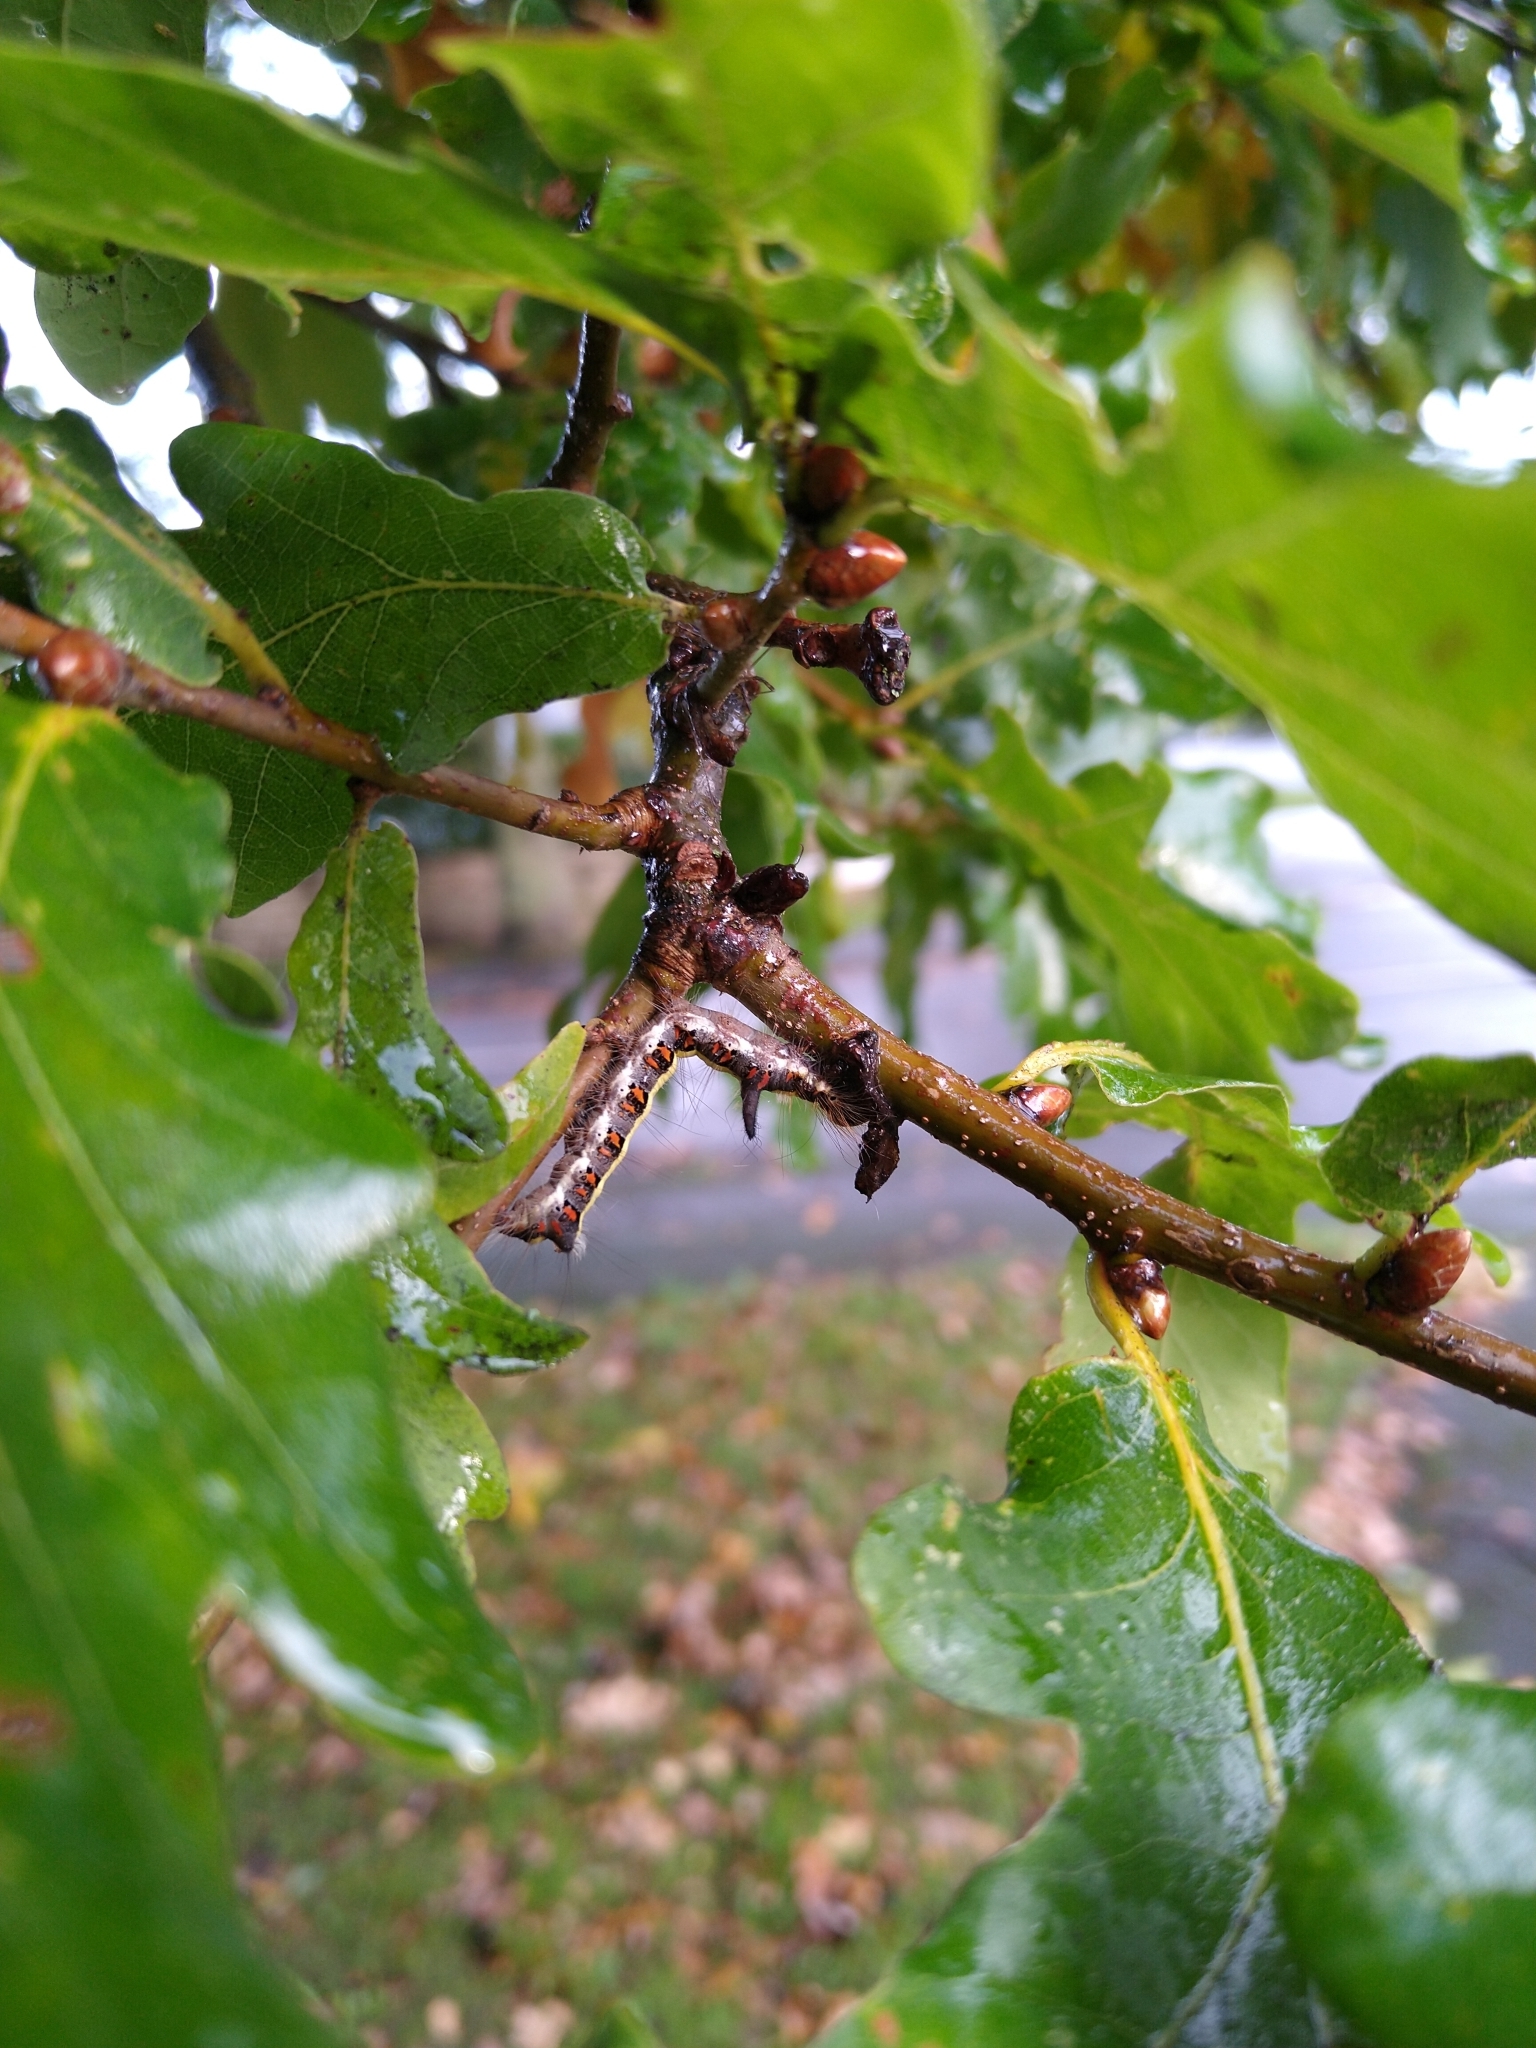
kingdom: Animalia
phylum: Arthropoda
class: Insecta
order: Lepidoptera
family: Noctuidae
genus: Acronicta
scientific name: Acronicta psi
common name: Grey dagger
